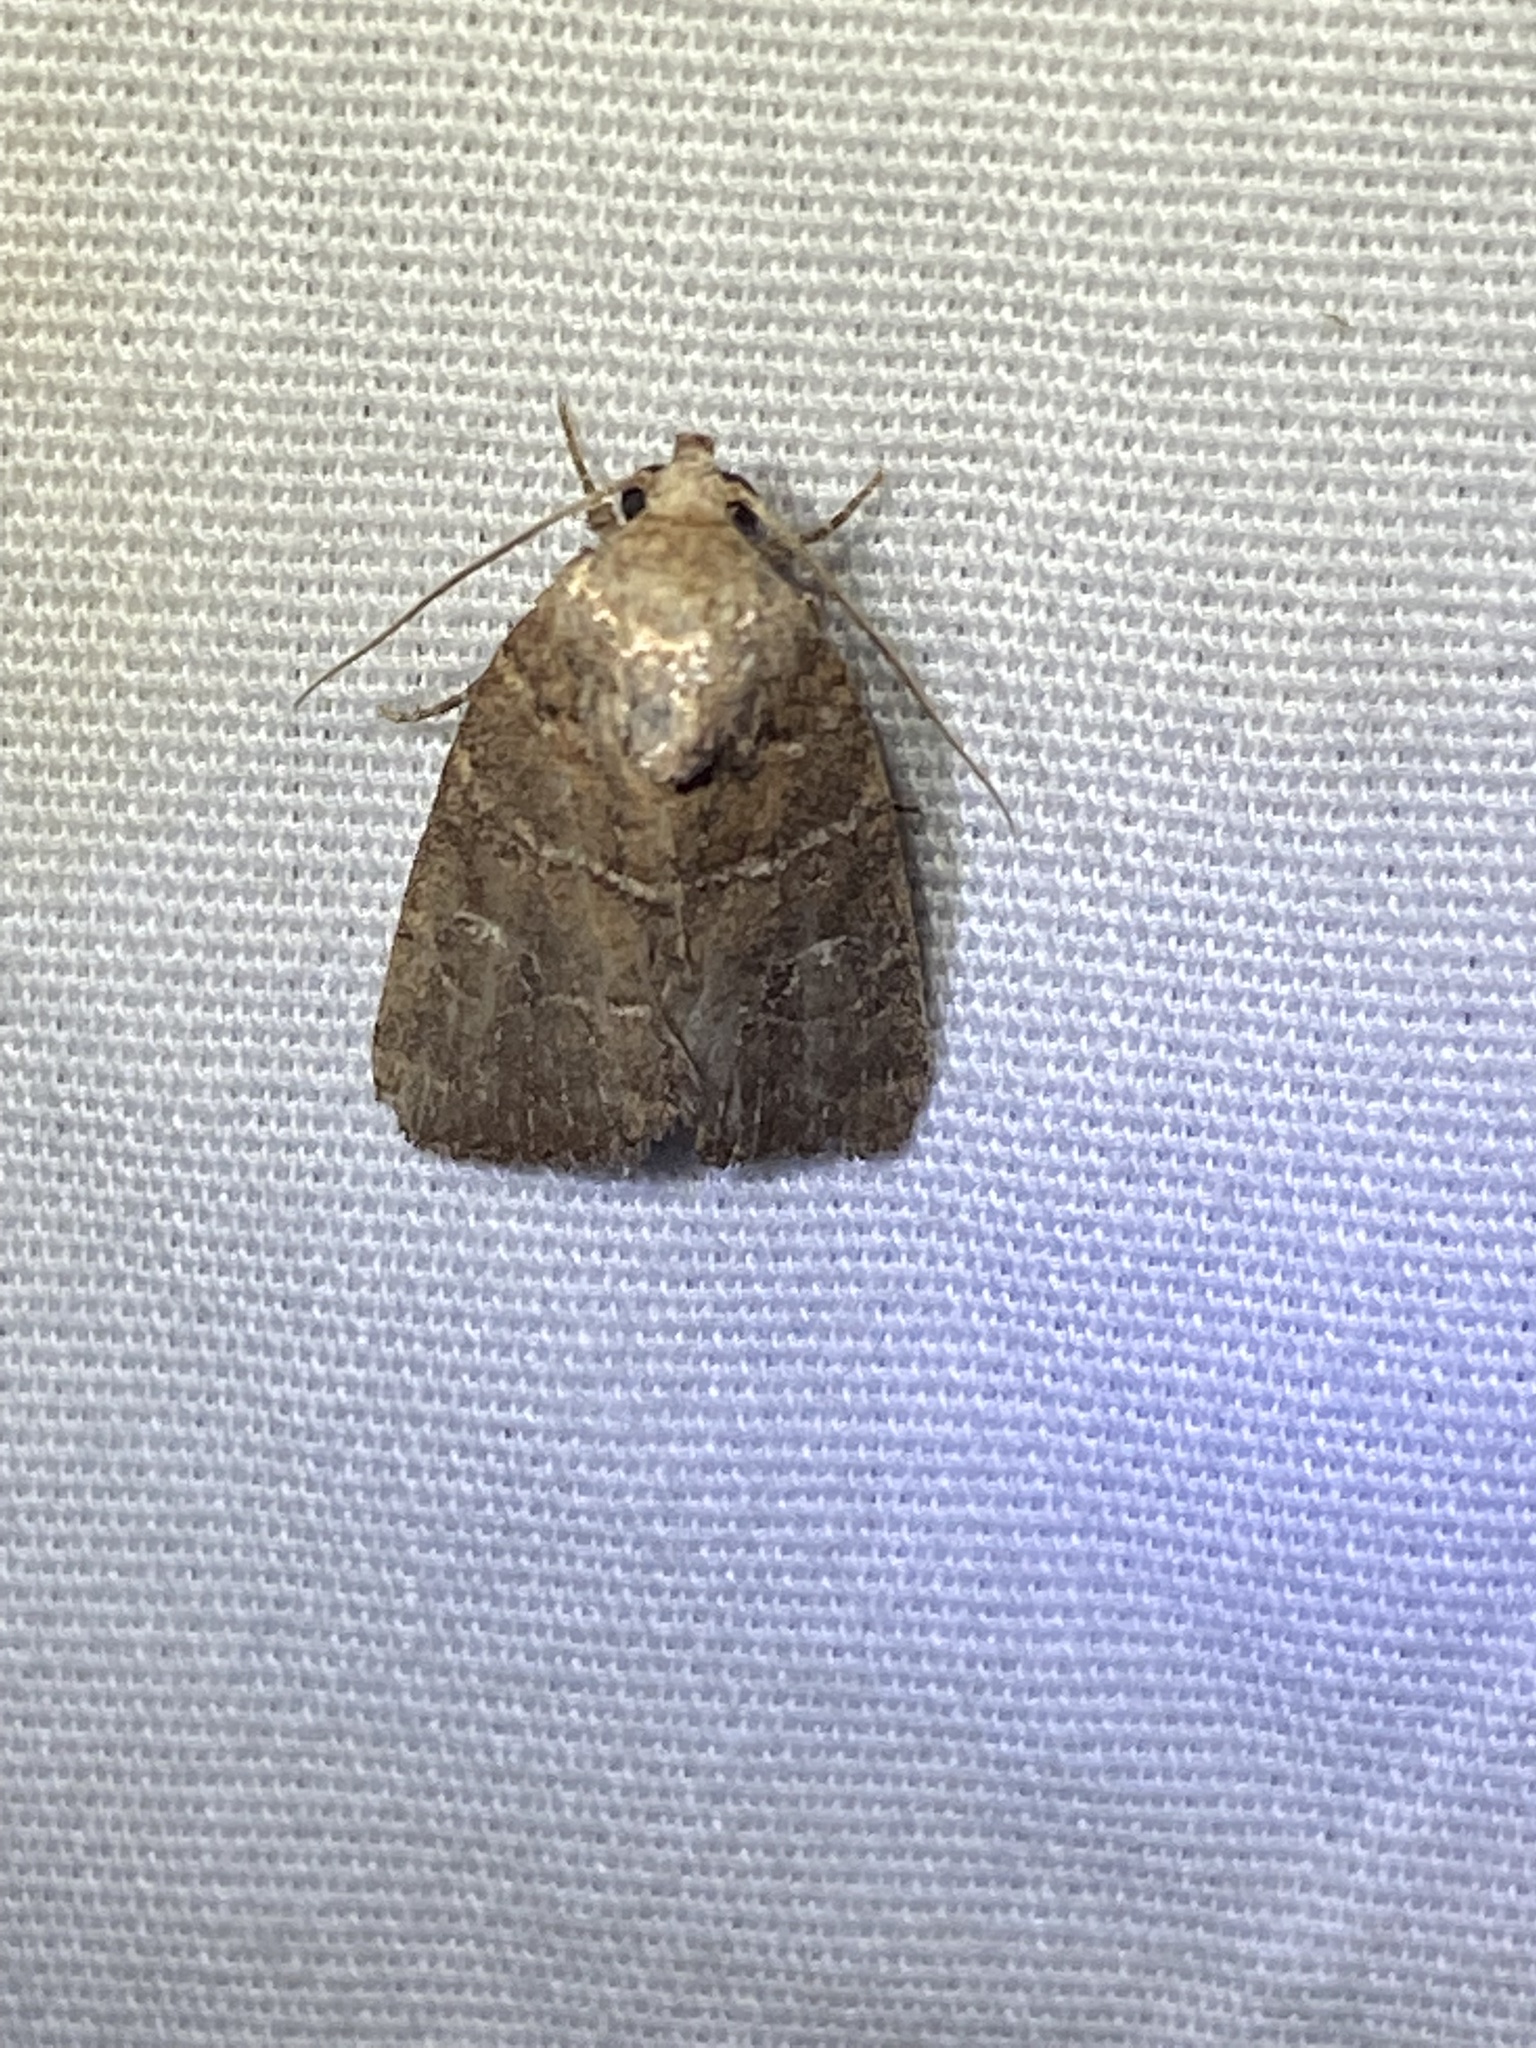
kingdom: Animalia
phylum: Arthropoda
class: Insecta
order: Lepidoptera
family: Noctuidae
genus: Elaphria
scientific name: Elaphria grata
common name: Grateful midget moth
